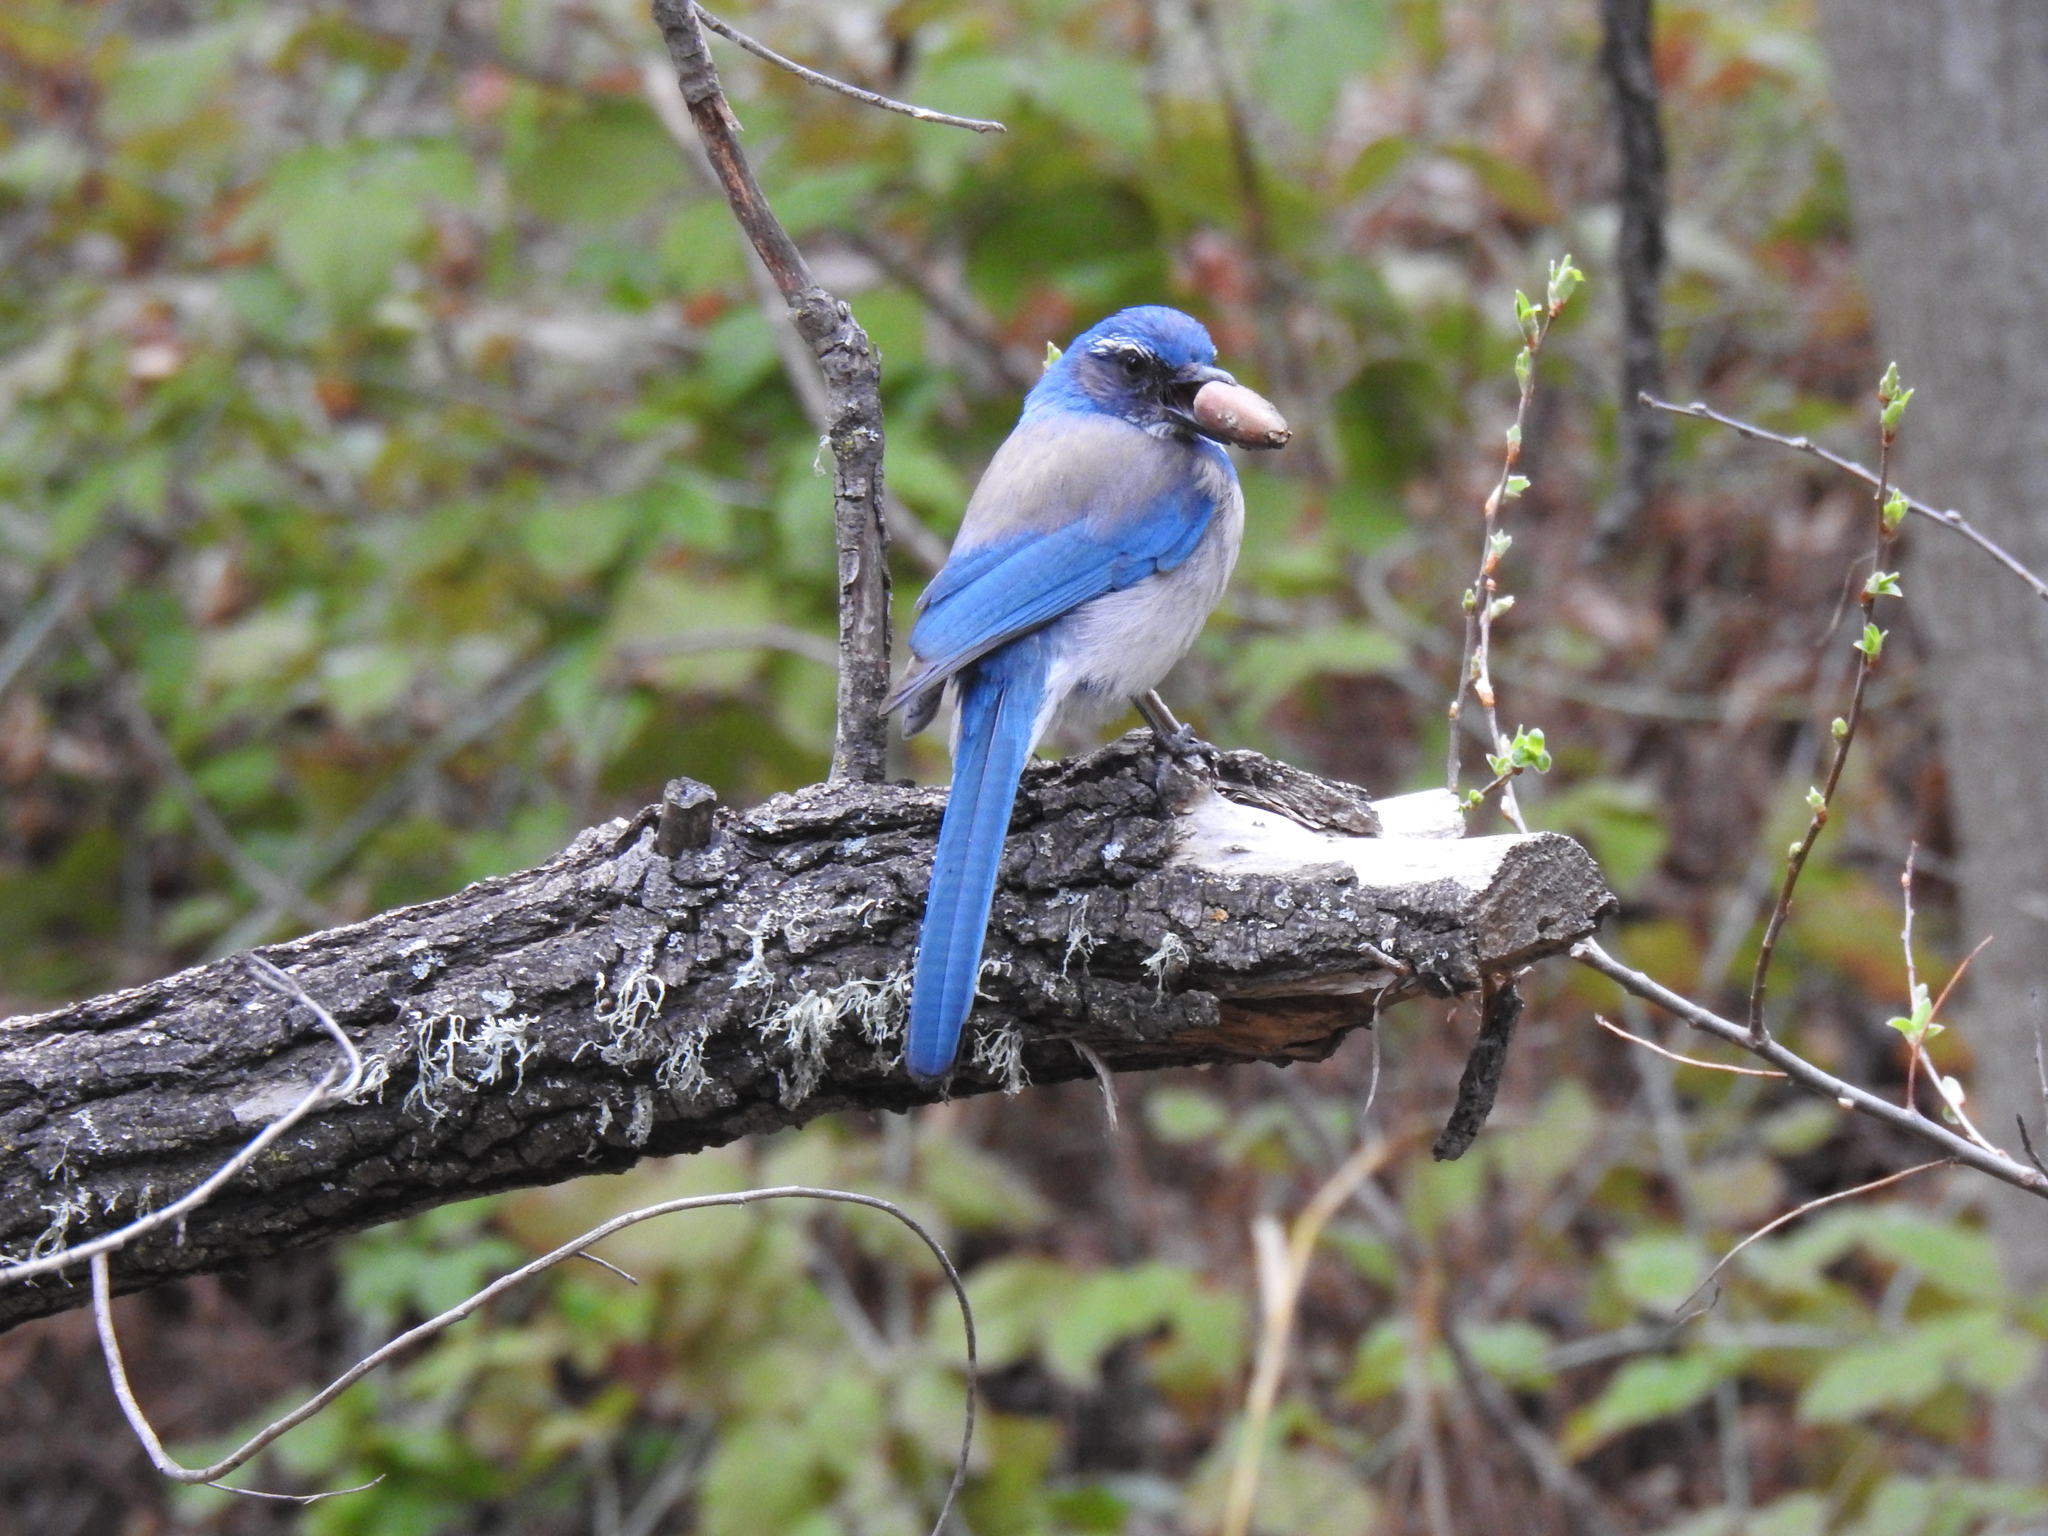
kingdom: Animalia
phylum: Chordata
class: Aves
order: Passeriformes
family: Corvidae
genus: Aphelocoma
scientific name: Aphelocoma californica
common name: California scrub-jay
